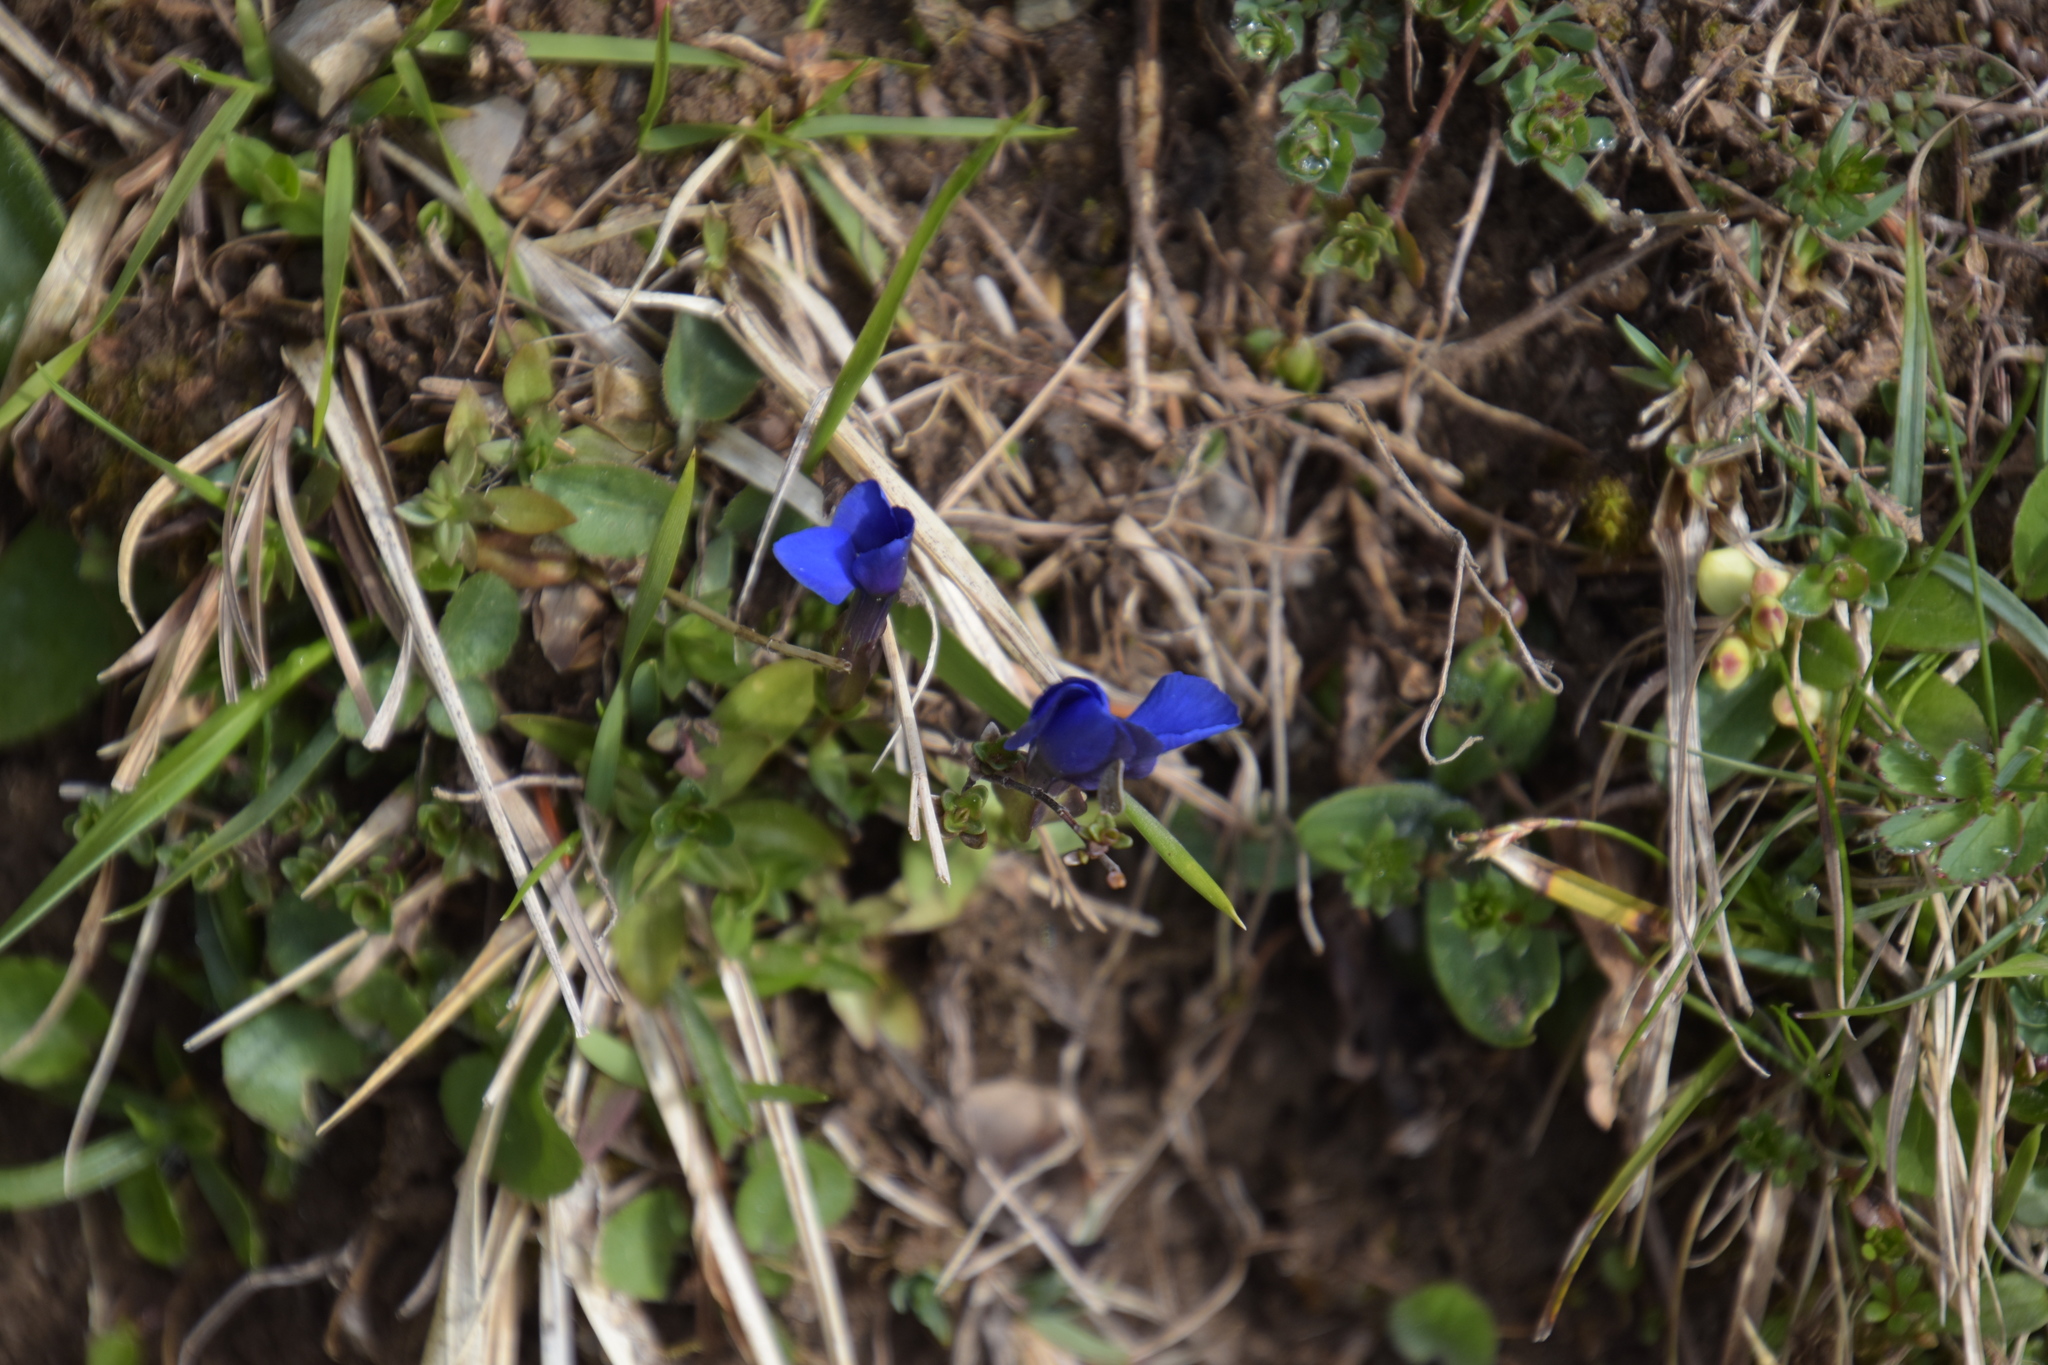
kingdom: Plantae
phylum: Tracheophyta
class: Magnoliopsida
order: Gentianales
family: Gentianaceae
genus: Gentiana
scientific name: Gentiana verna
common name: Spring gentian
